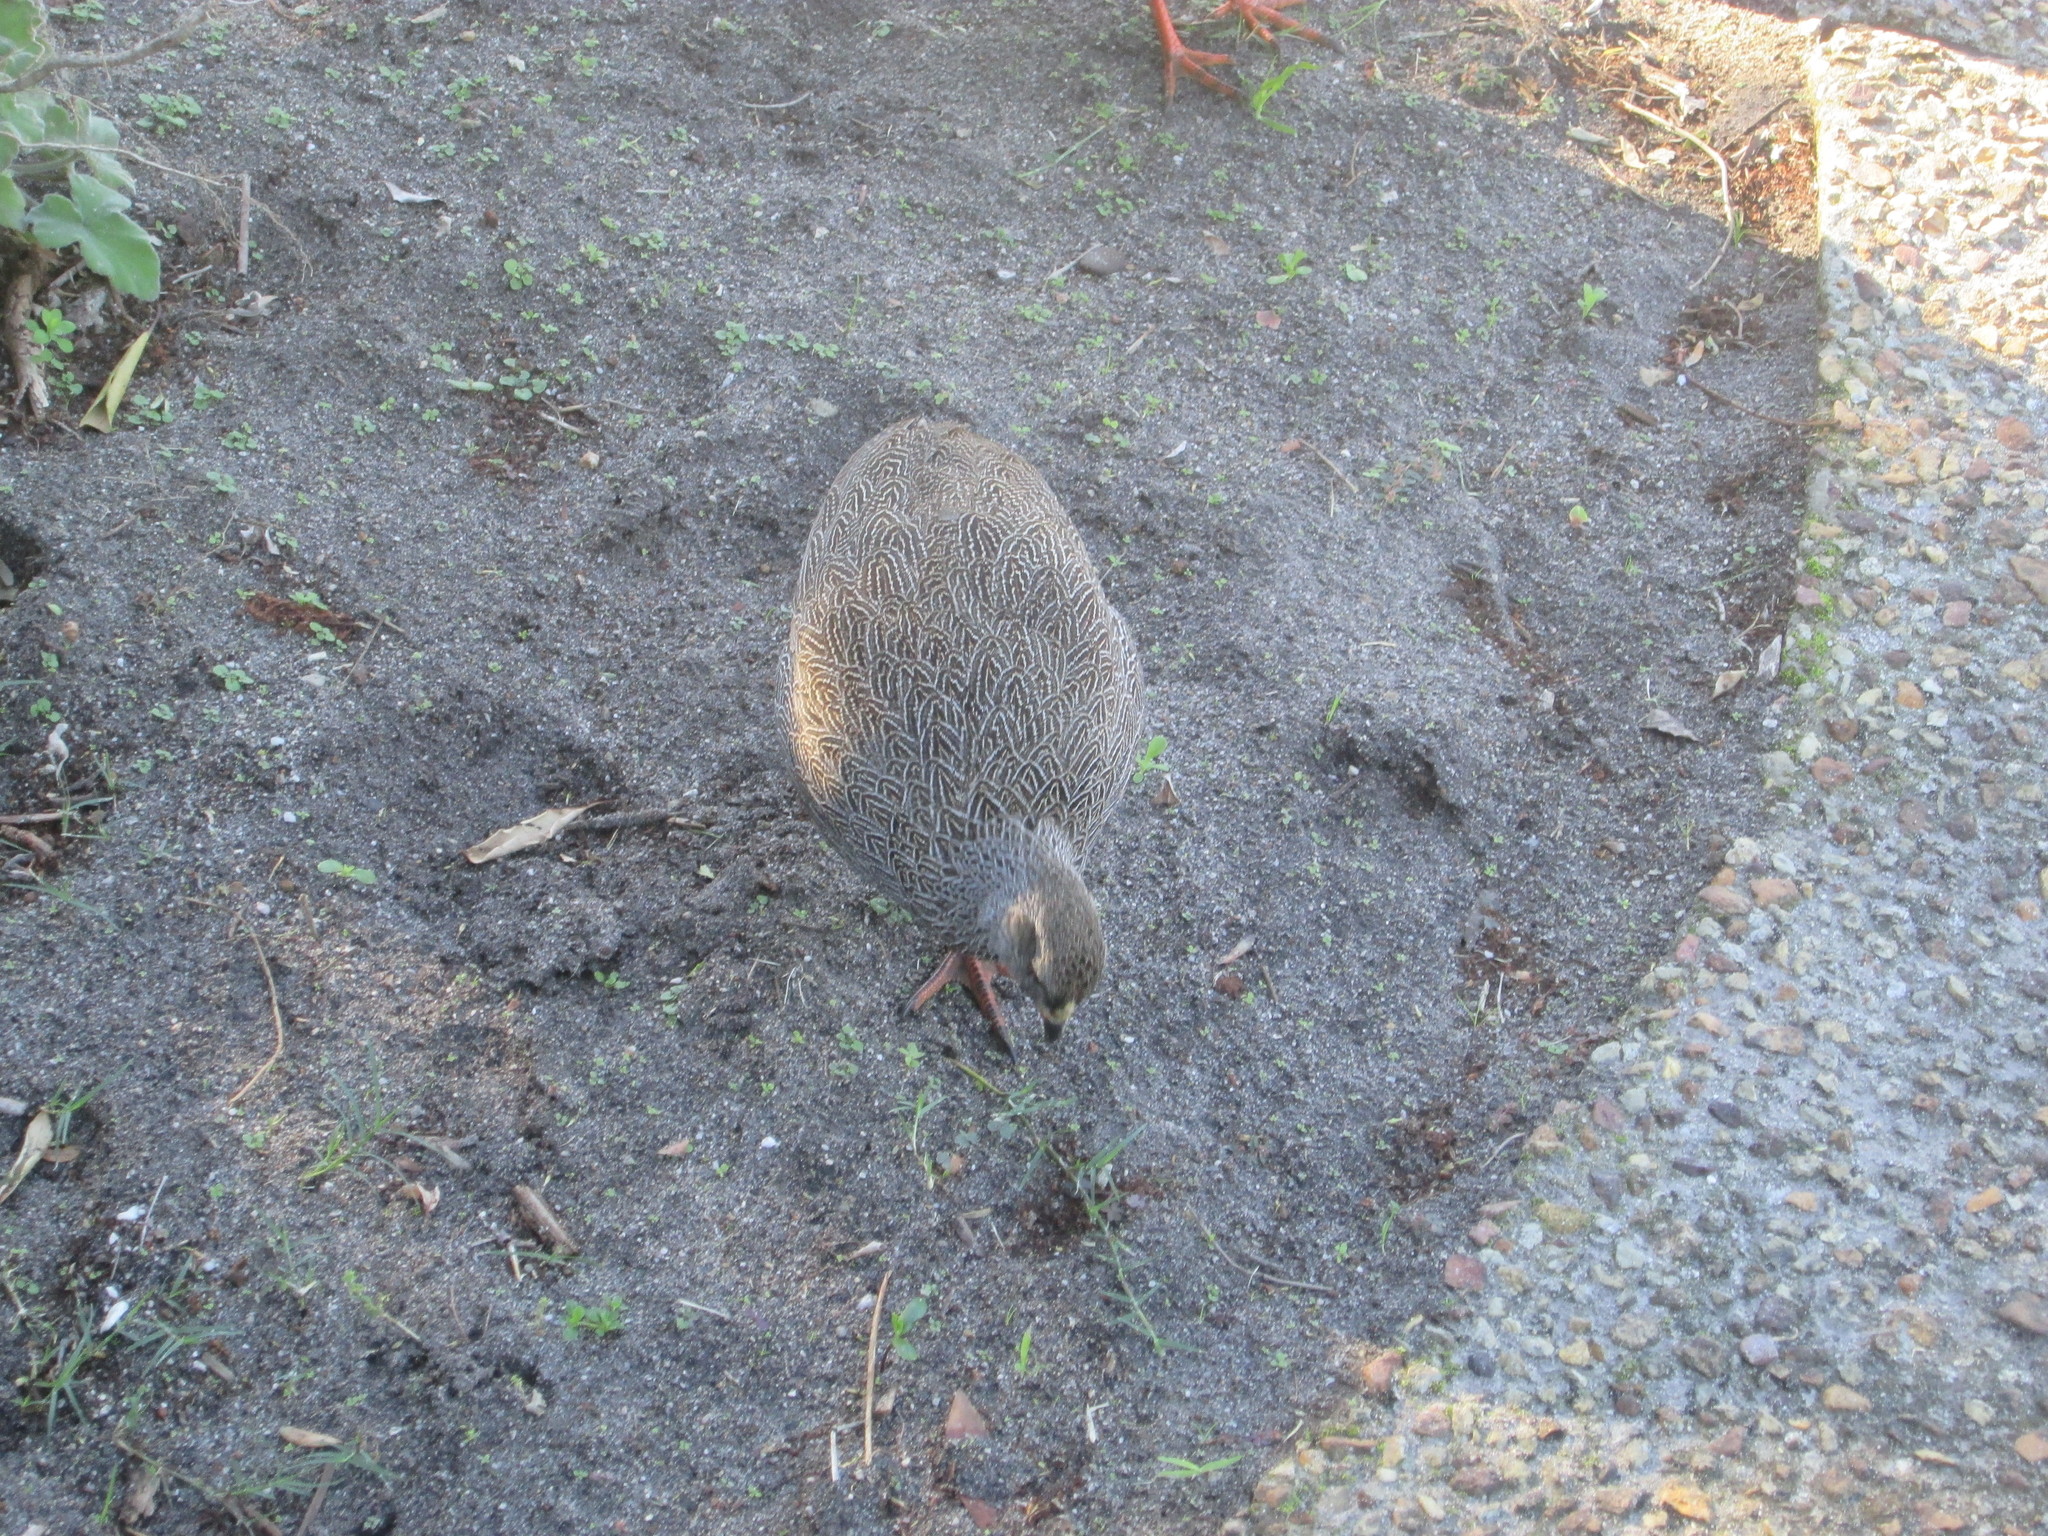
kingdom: Animalia
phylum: Chordata
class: Aves
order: Galliformes
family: Phasianidae
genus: Pternistis
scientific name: Pternistis capensis
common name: Cape spurfowl
